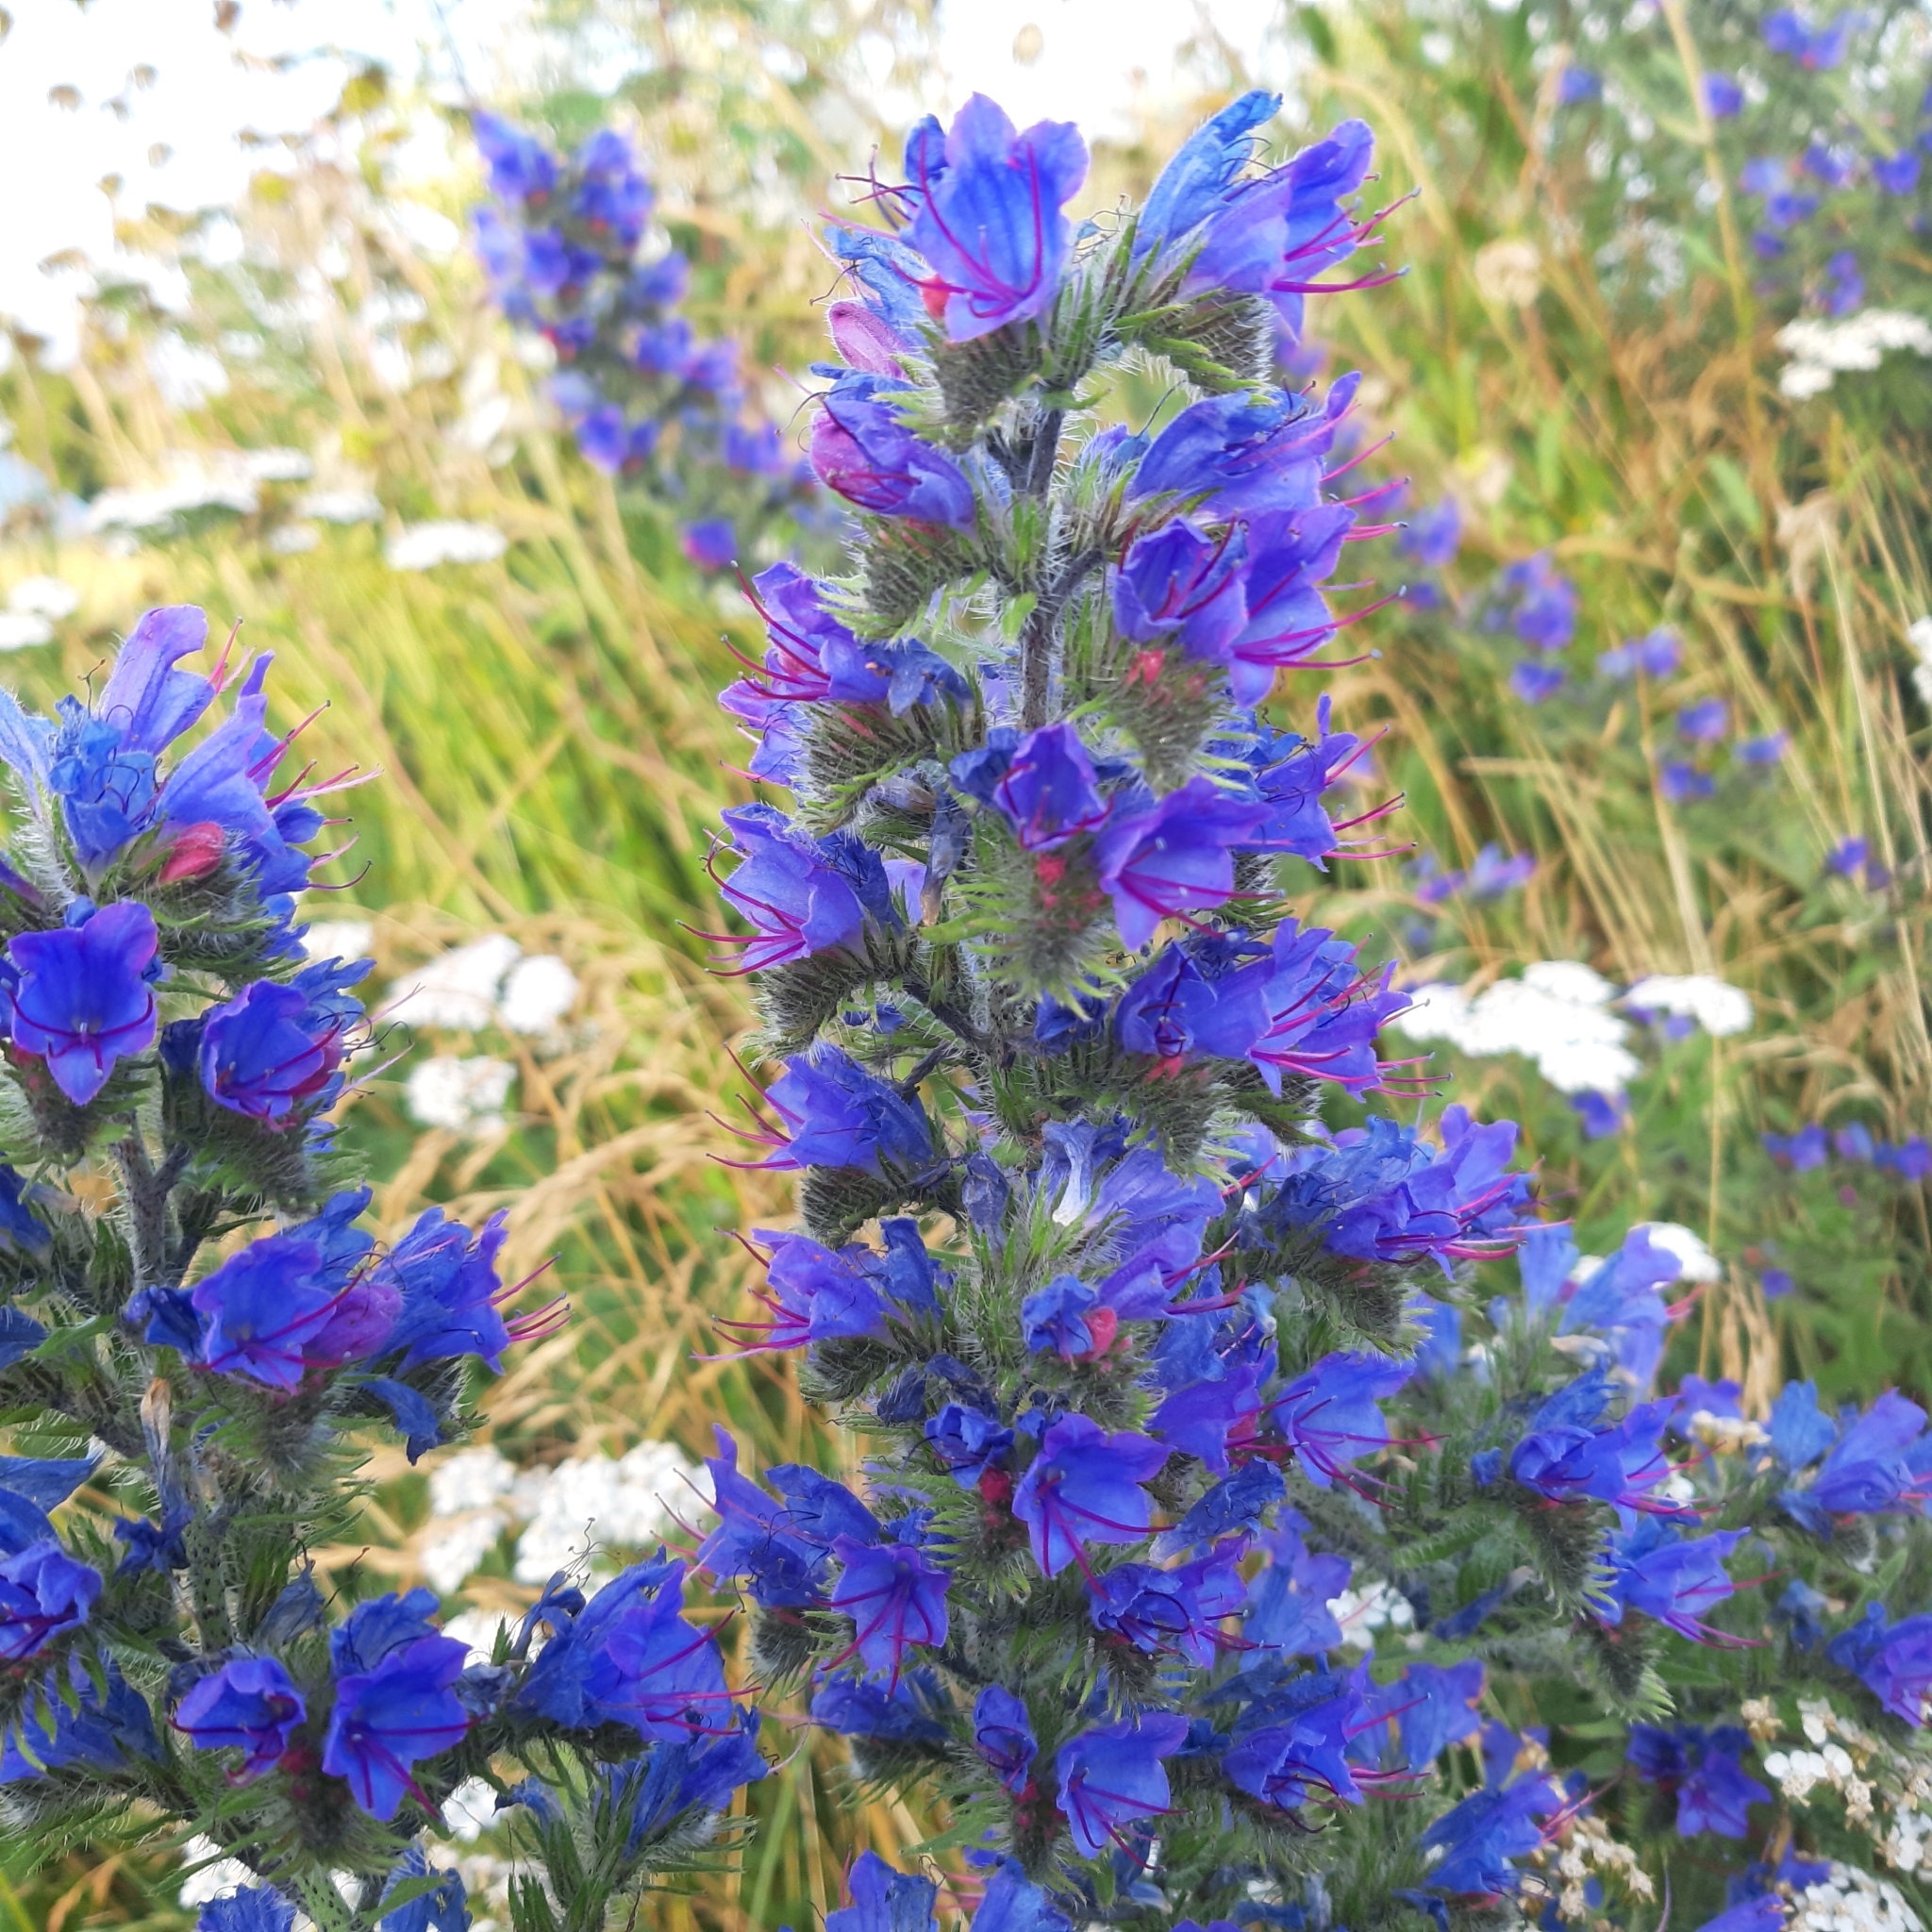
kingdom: Plantae
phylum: Tracheophyta
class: Magnoliopsida
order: Boraginales
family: Boraginaceae
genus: Echium
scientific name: Echium vulgare
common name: Common viper's bugloss
